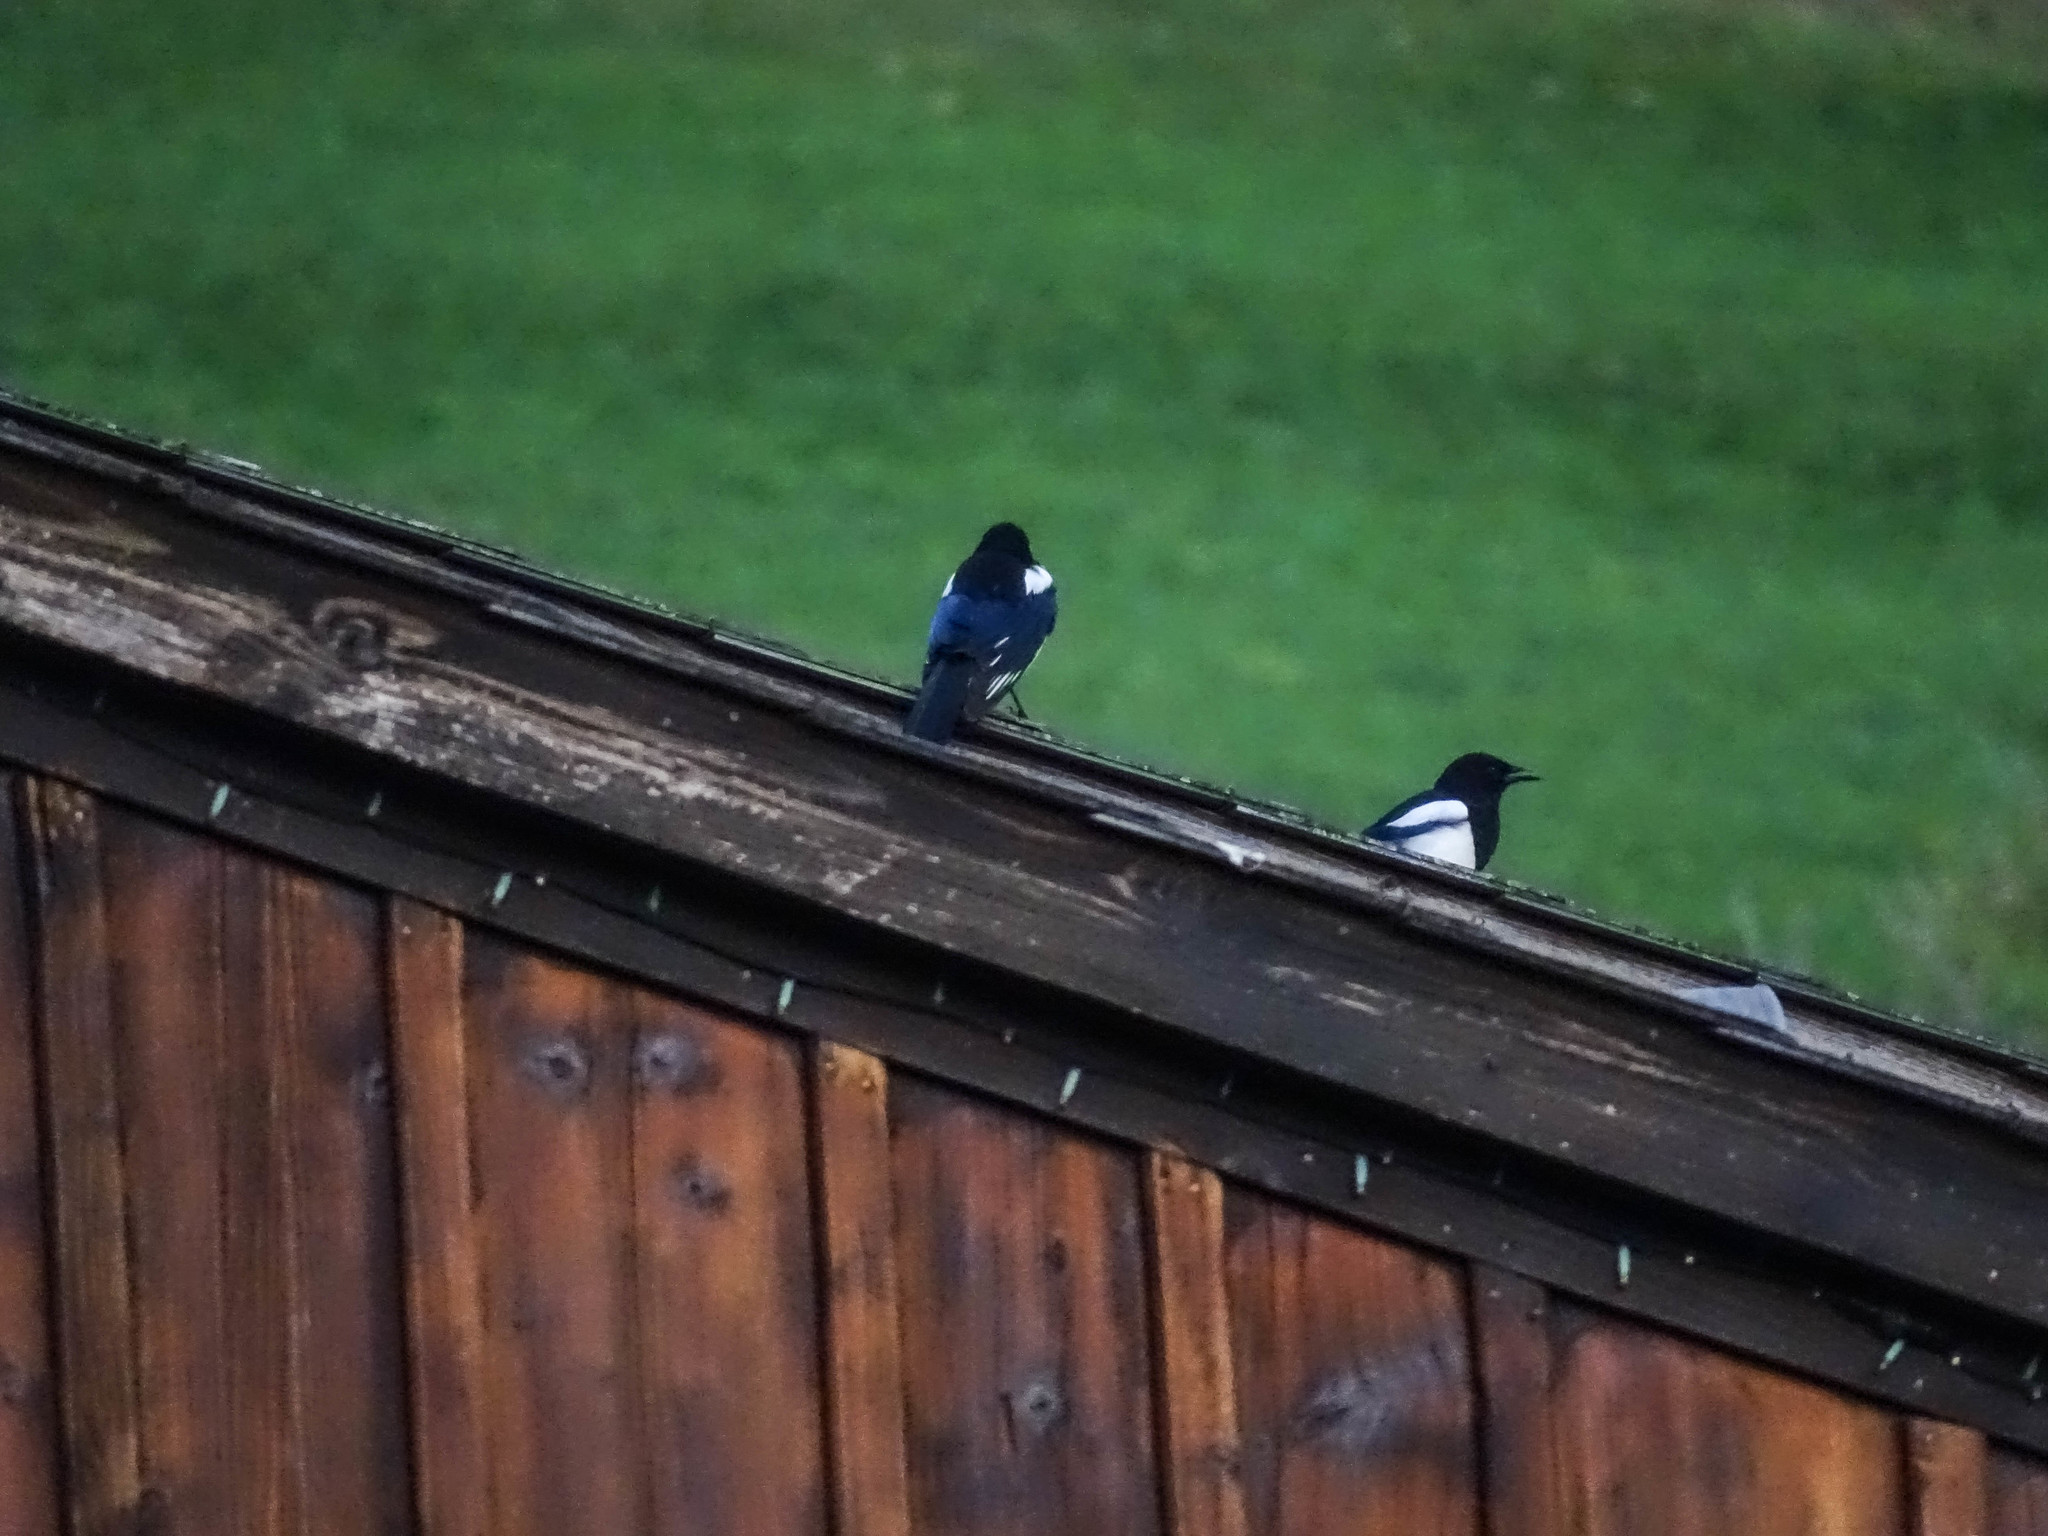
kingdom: Animalia
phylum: Chordata
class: Aves
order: Passeriformes
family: Corvidae
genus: Pica
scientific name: Pica pica
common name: Eurasian magpie
